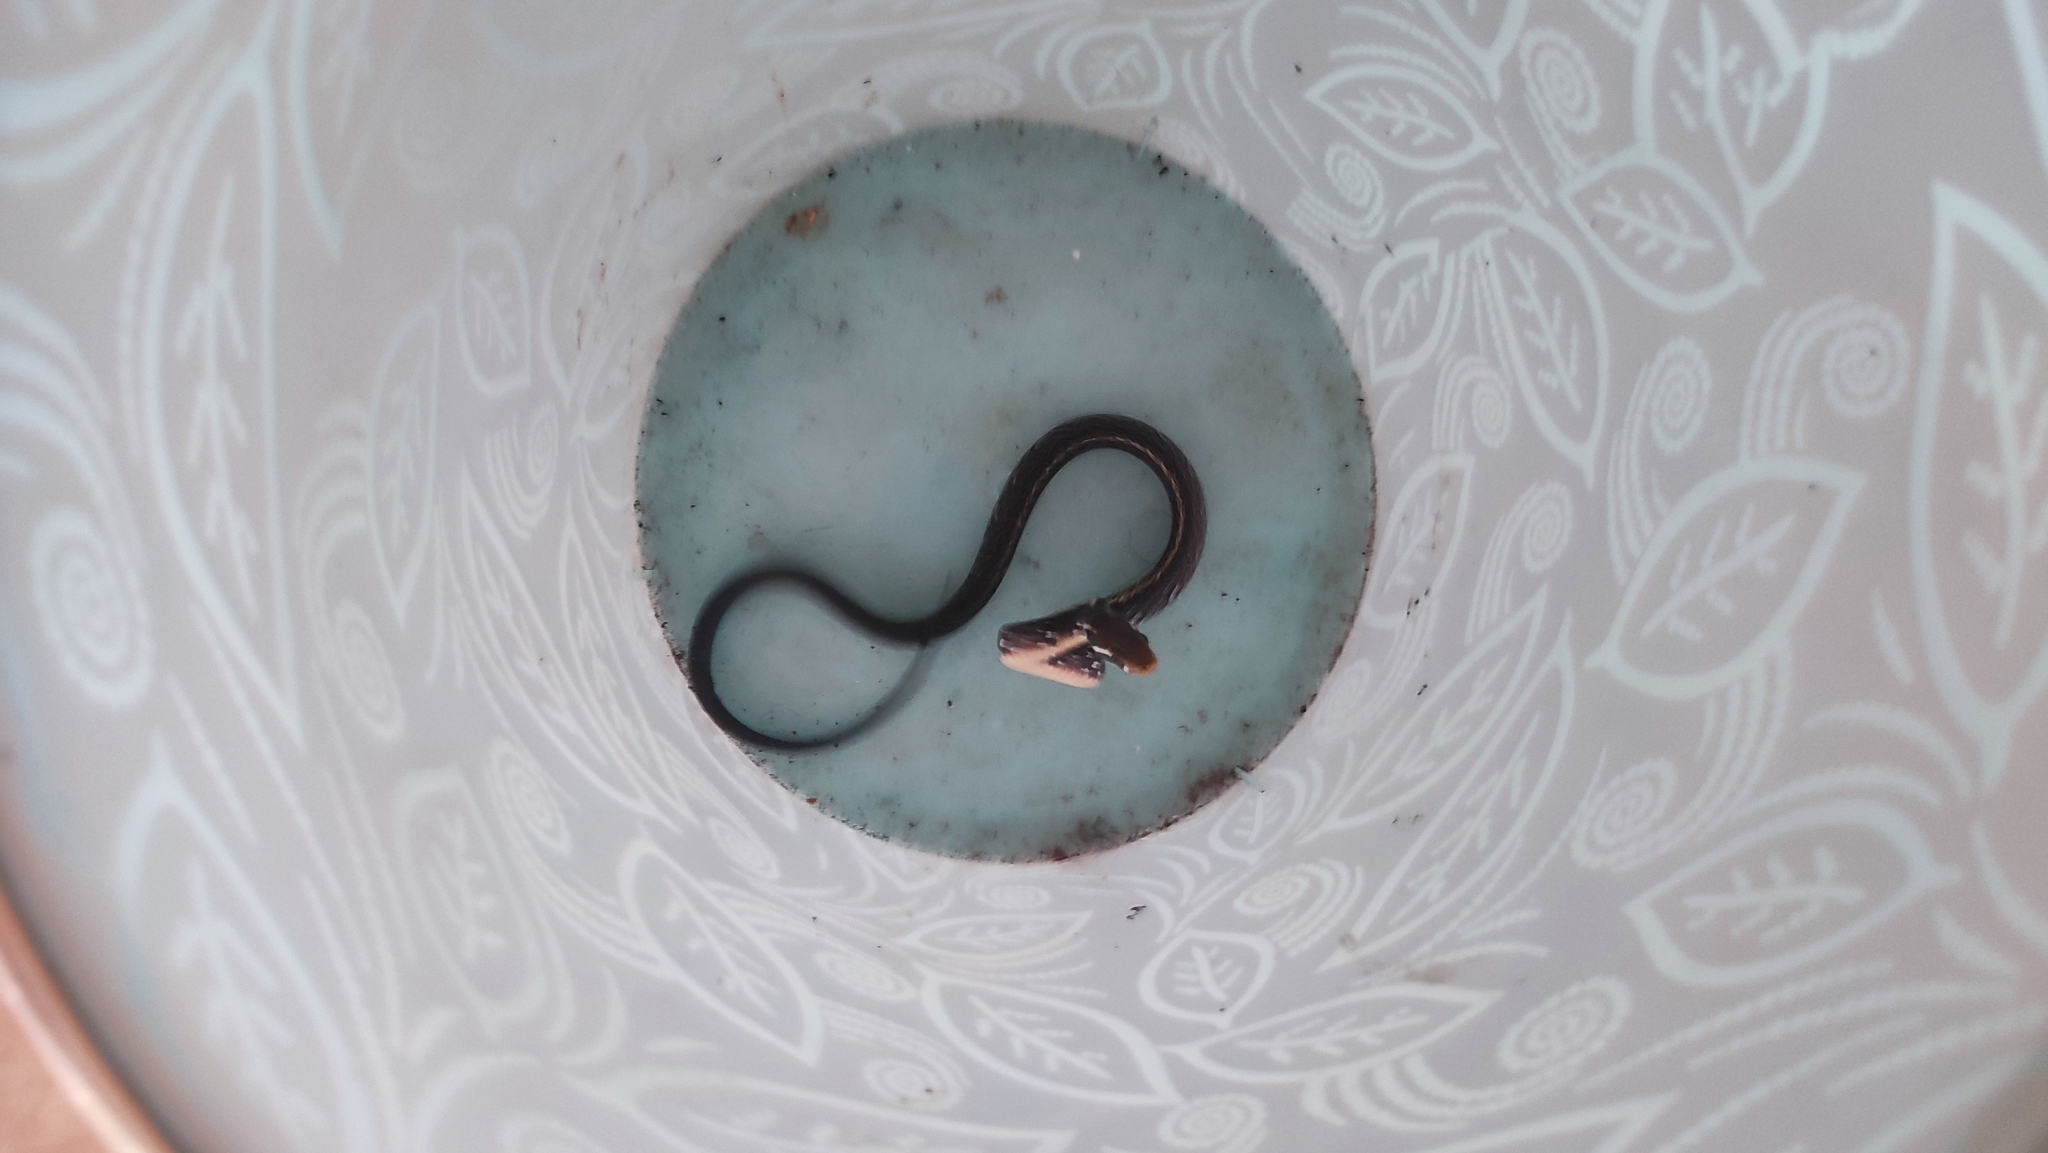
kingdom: Animalia
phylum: Chordata
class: Squamata
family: Colubridae
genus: Coelognathus
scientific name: Coelognathus flavolineatus
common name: Black copper rat snake
